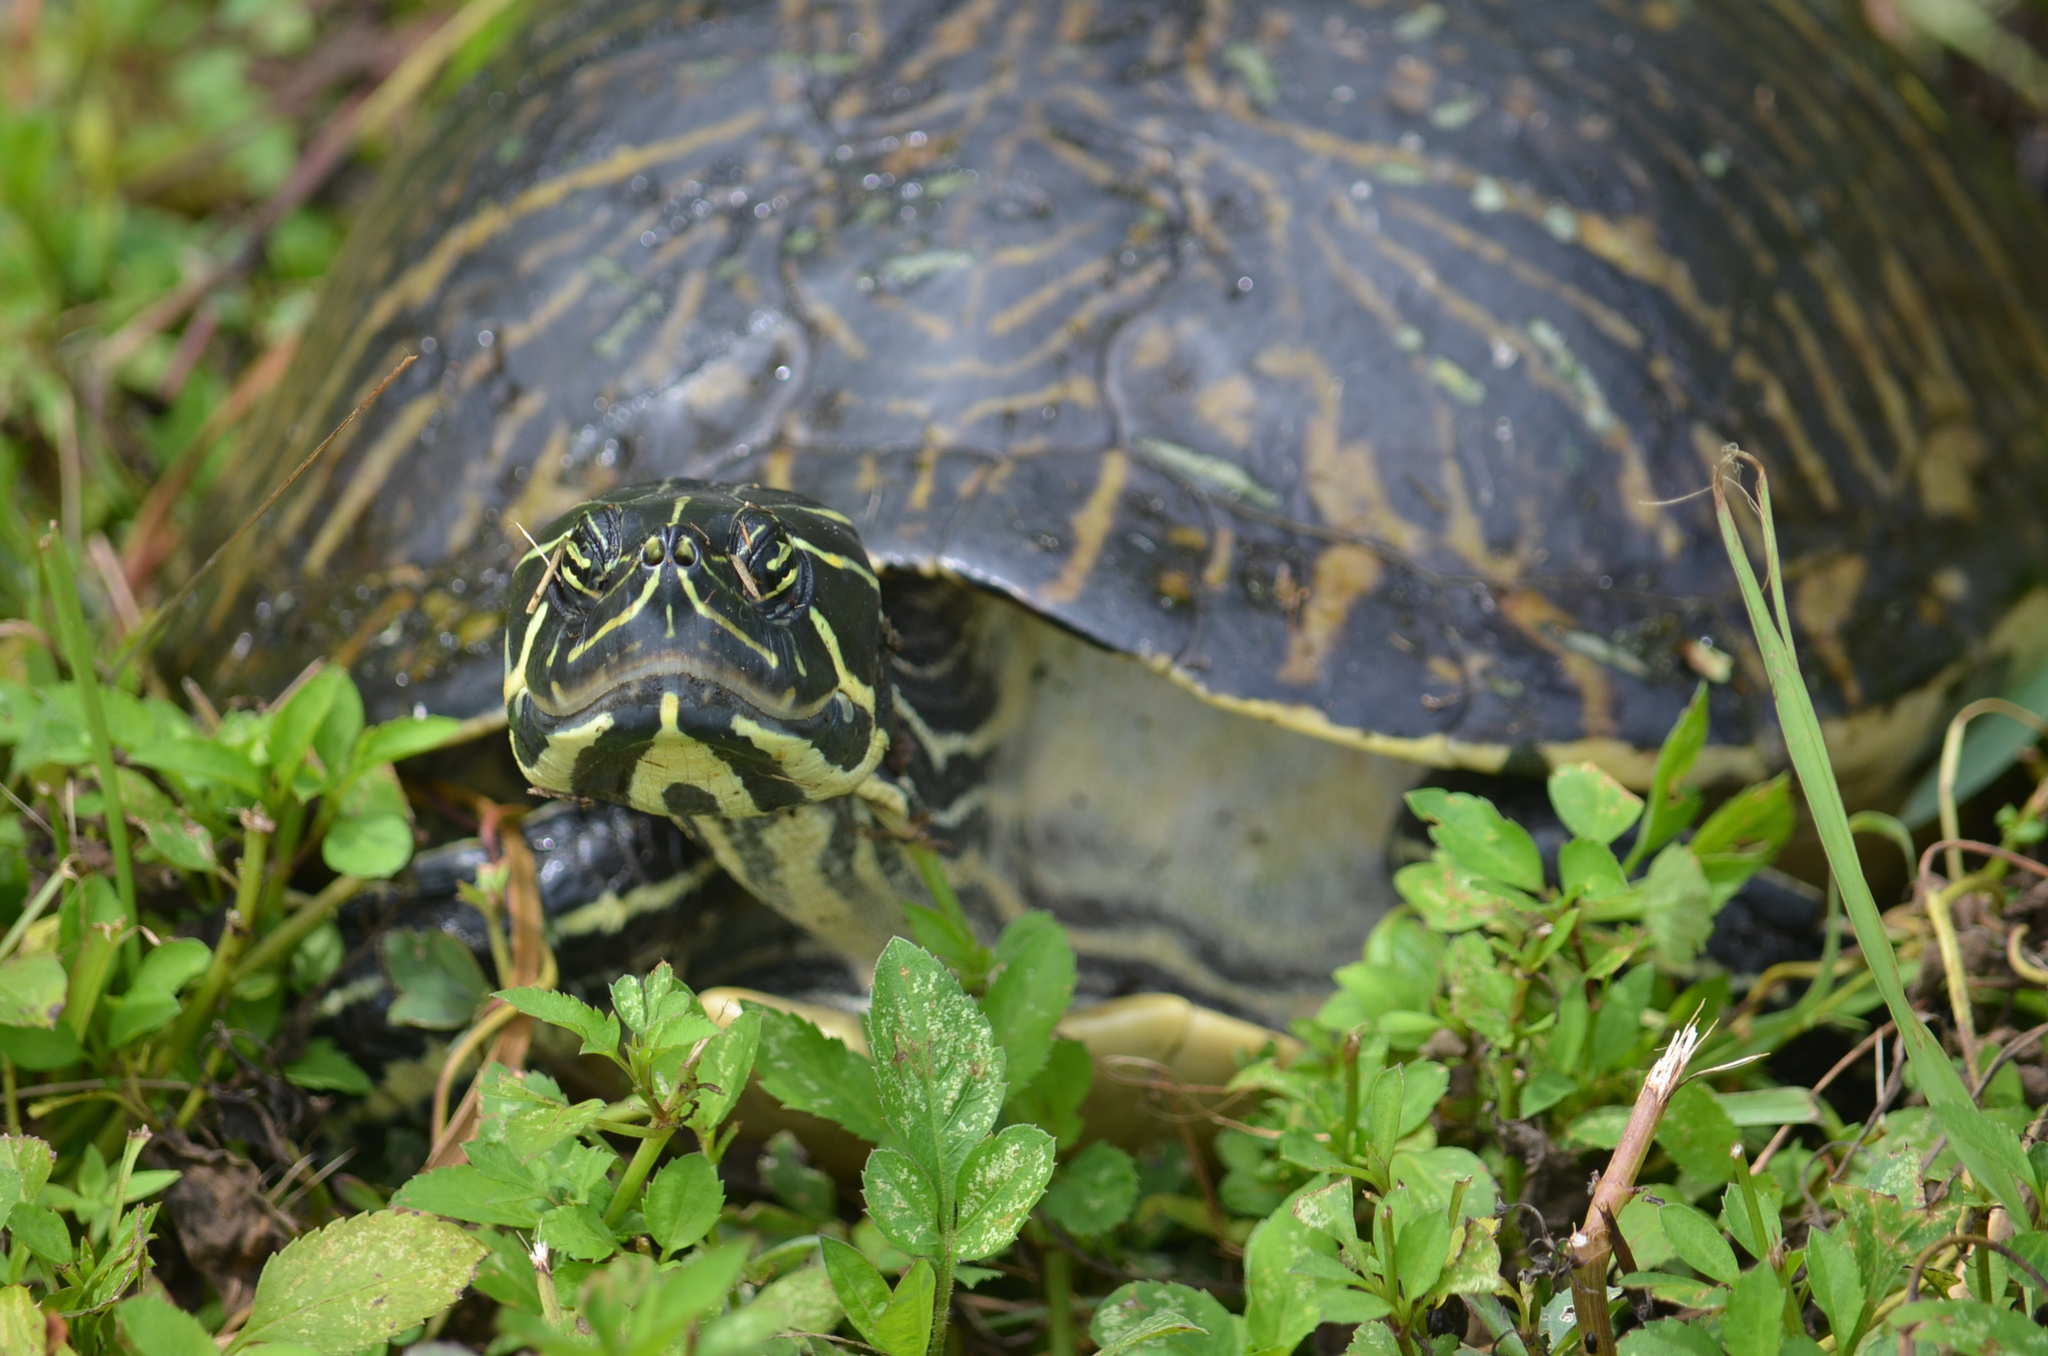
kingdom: Animalia
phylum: Chordata
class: Testudines
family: Emydidae
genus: Pseudemys
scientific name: Pseudemys peninsularis
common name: Peninsula cooter
